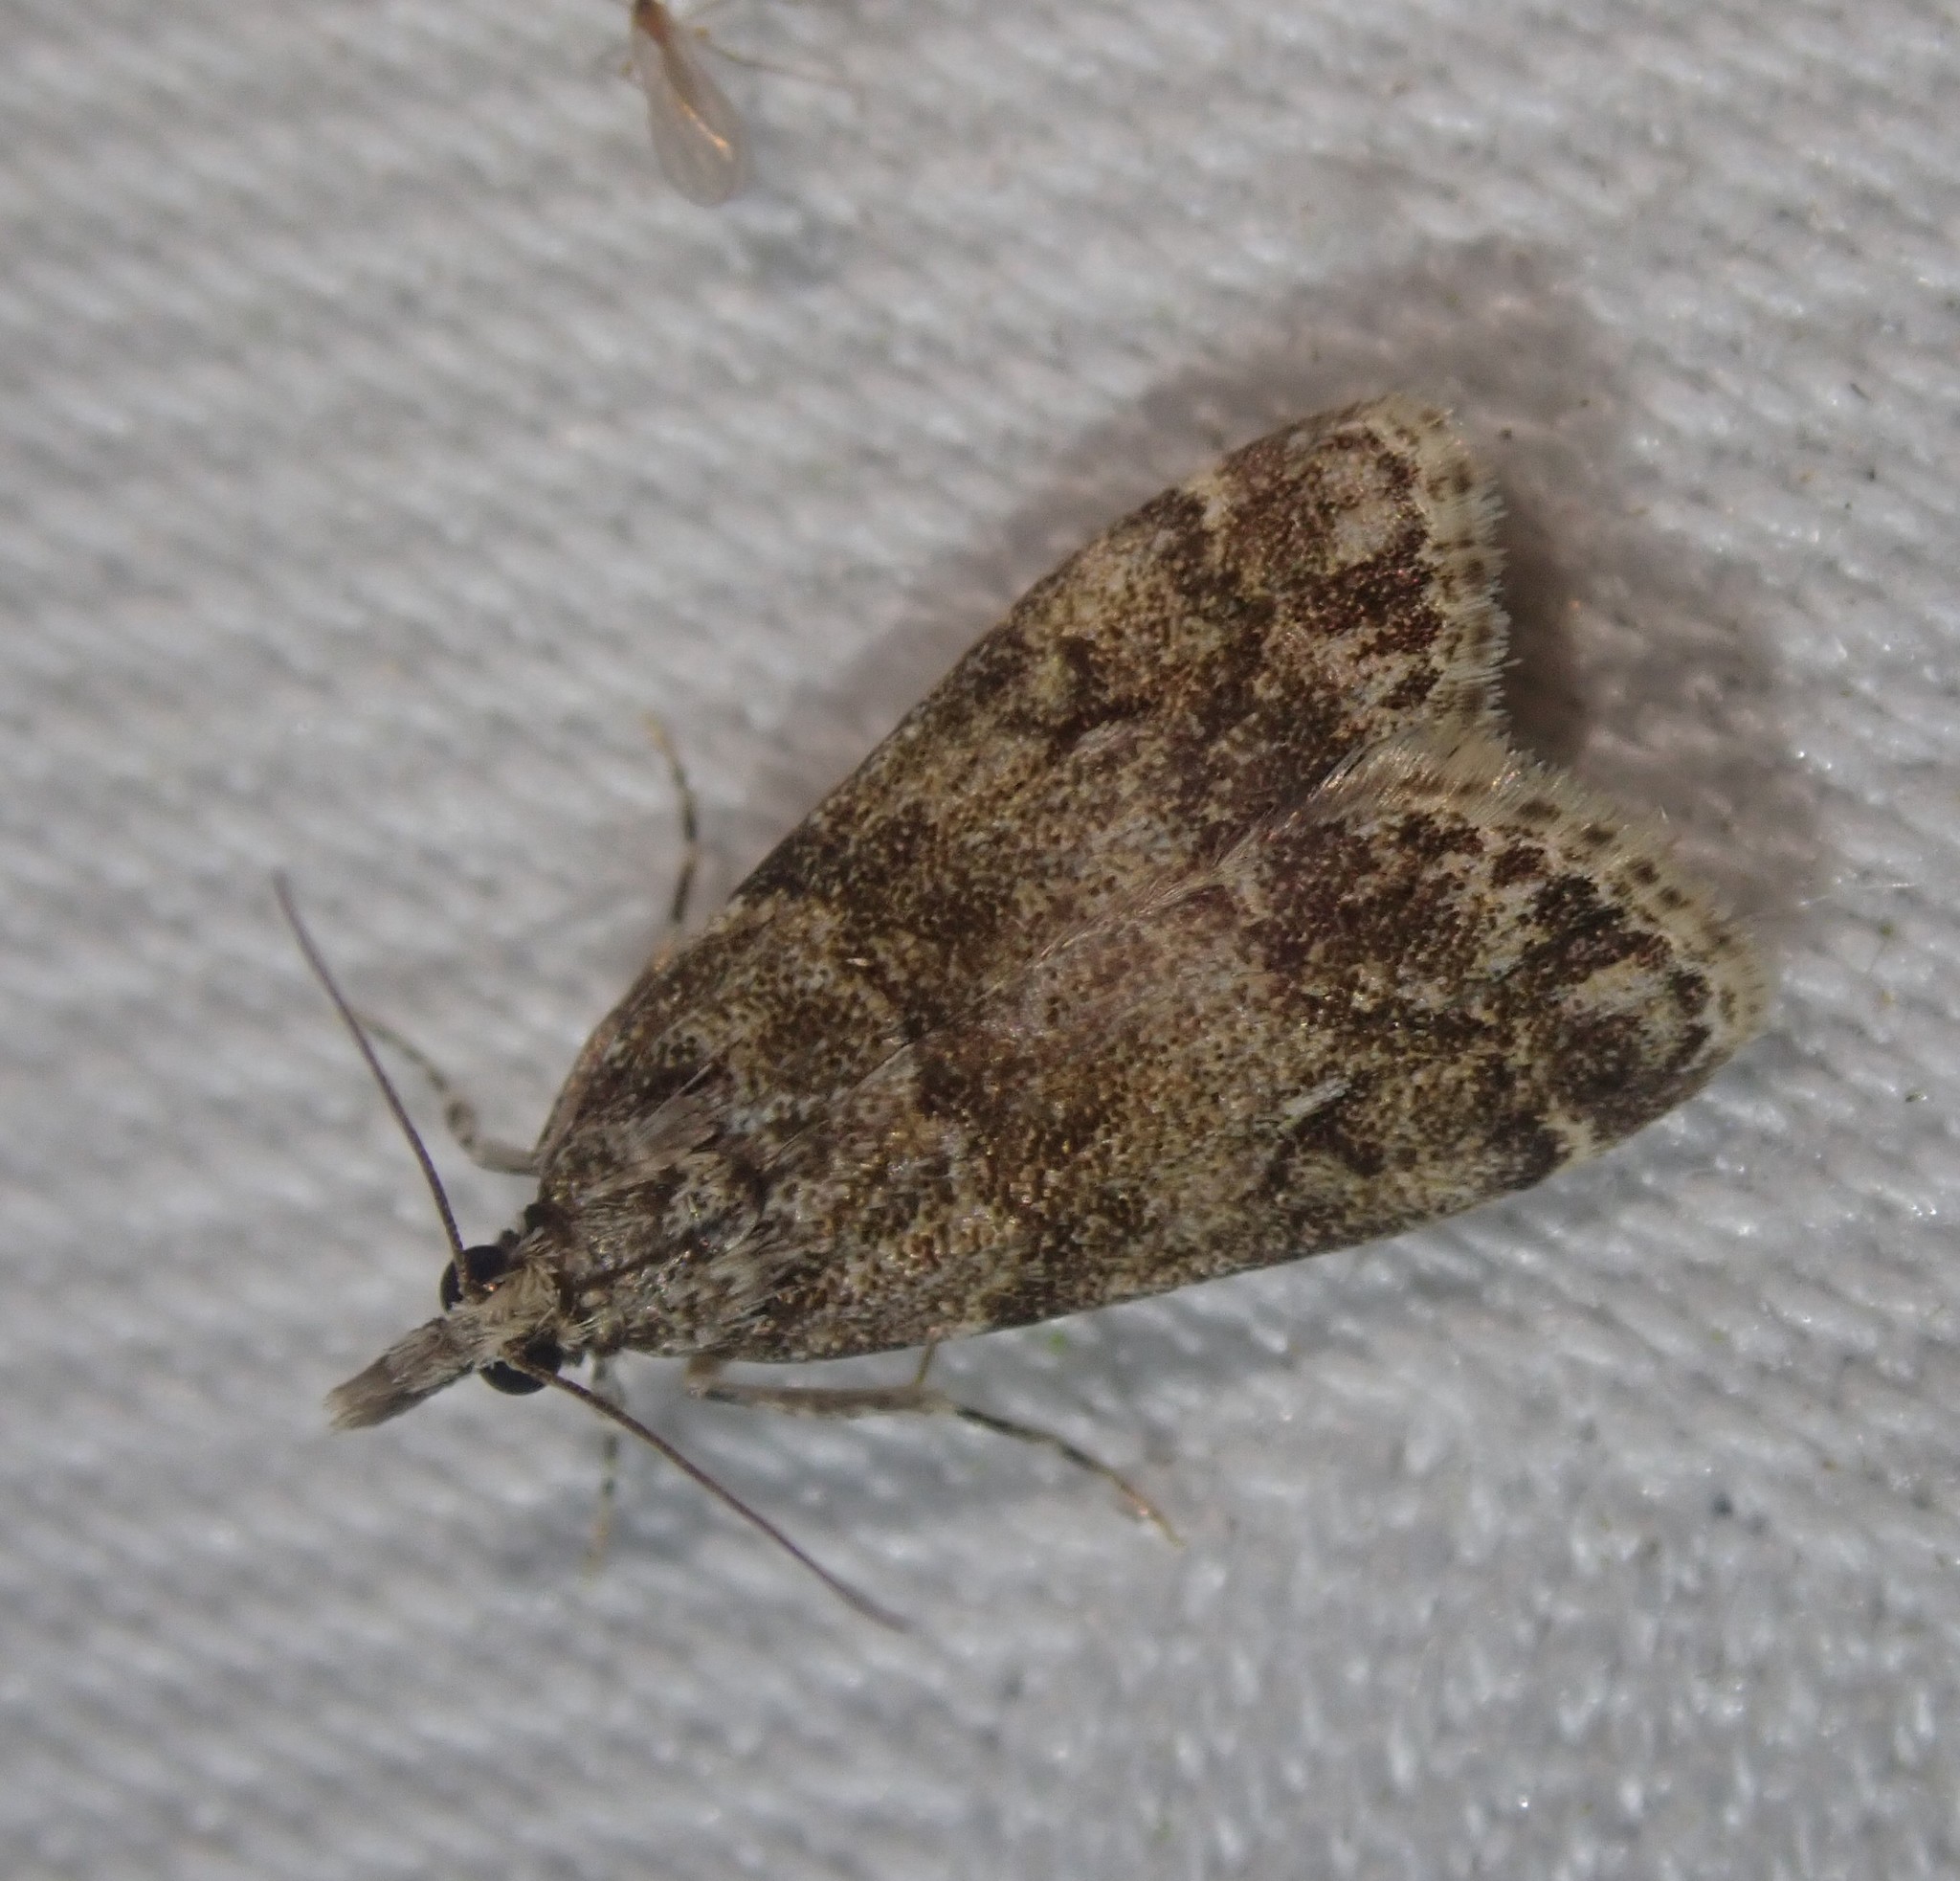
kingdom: Animalia
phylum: Arthropoda
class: Insecta
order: Lepidoptera
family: Crambidae
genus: Eudonia
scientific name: Eudonia lacustrata
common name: Little grey
